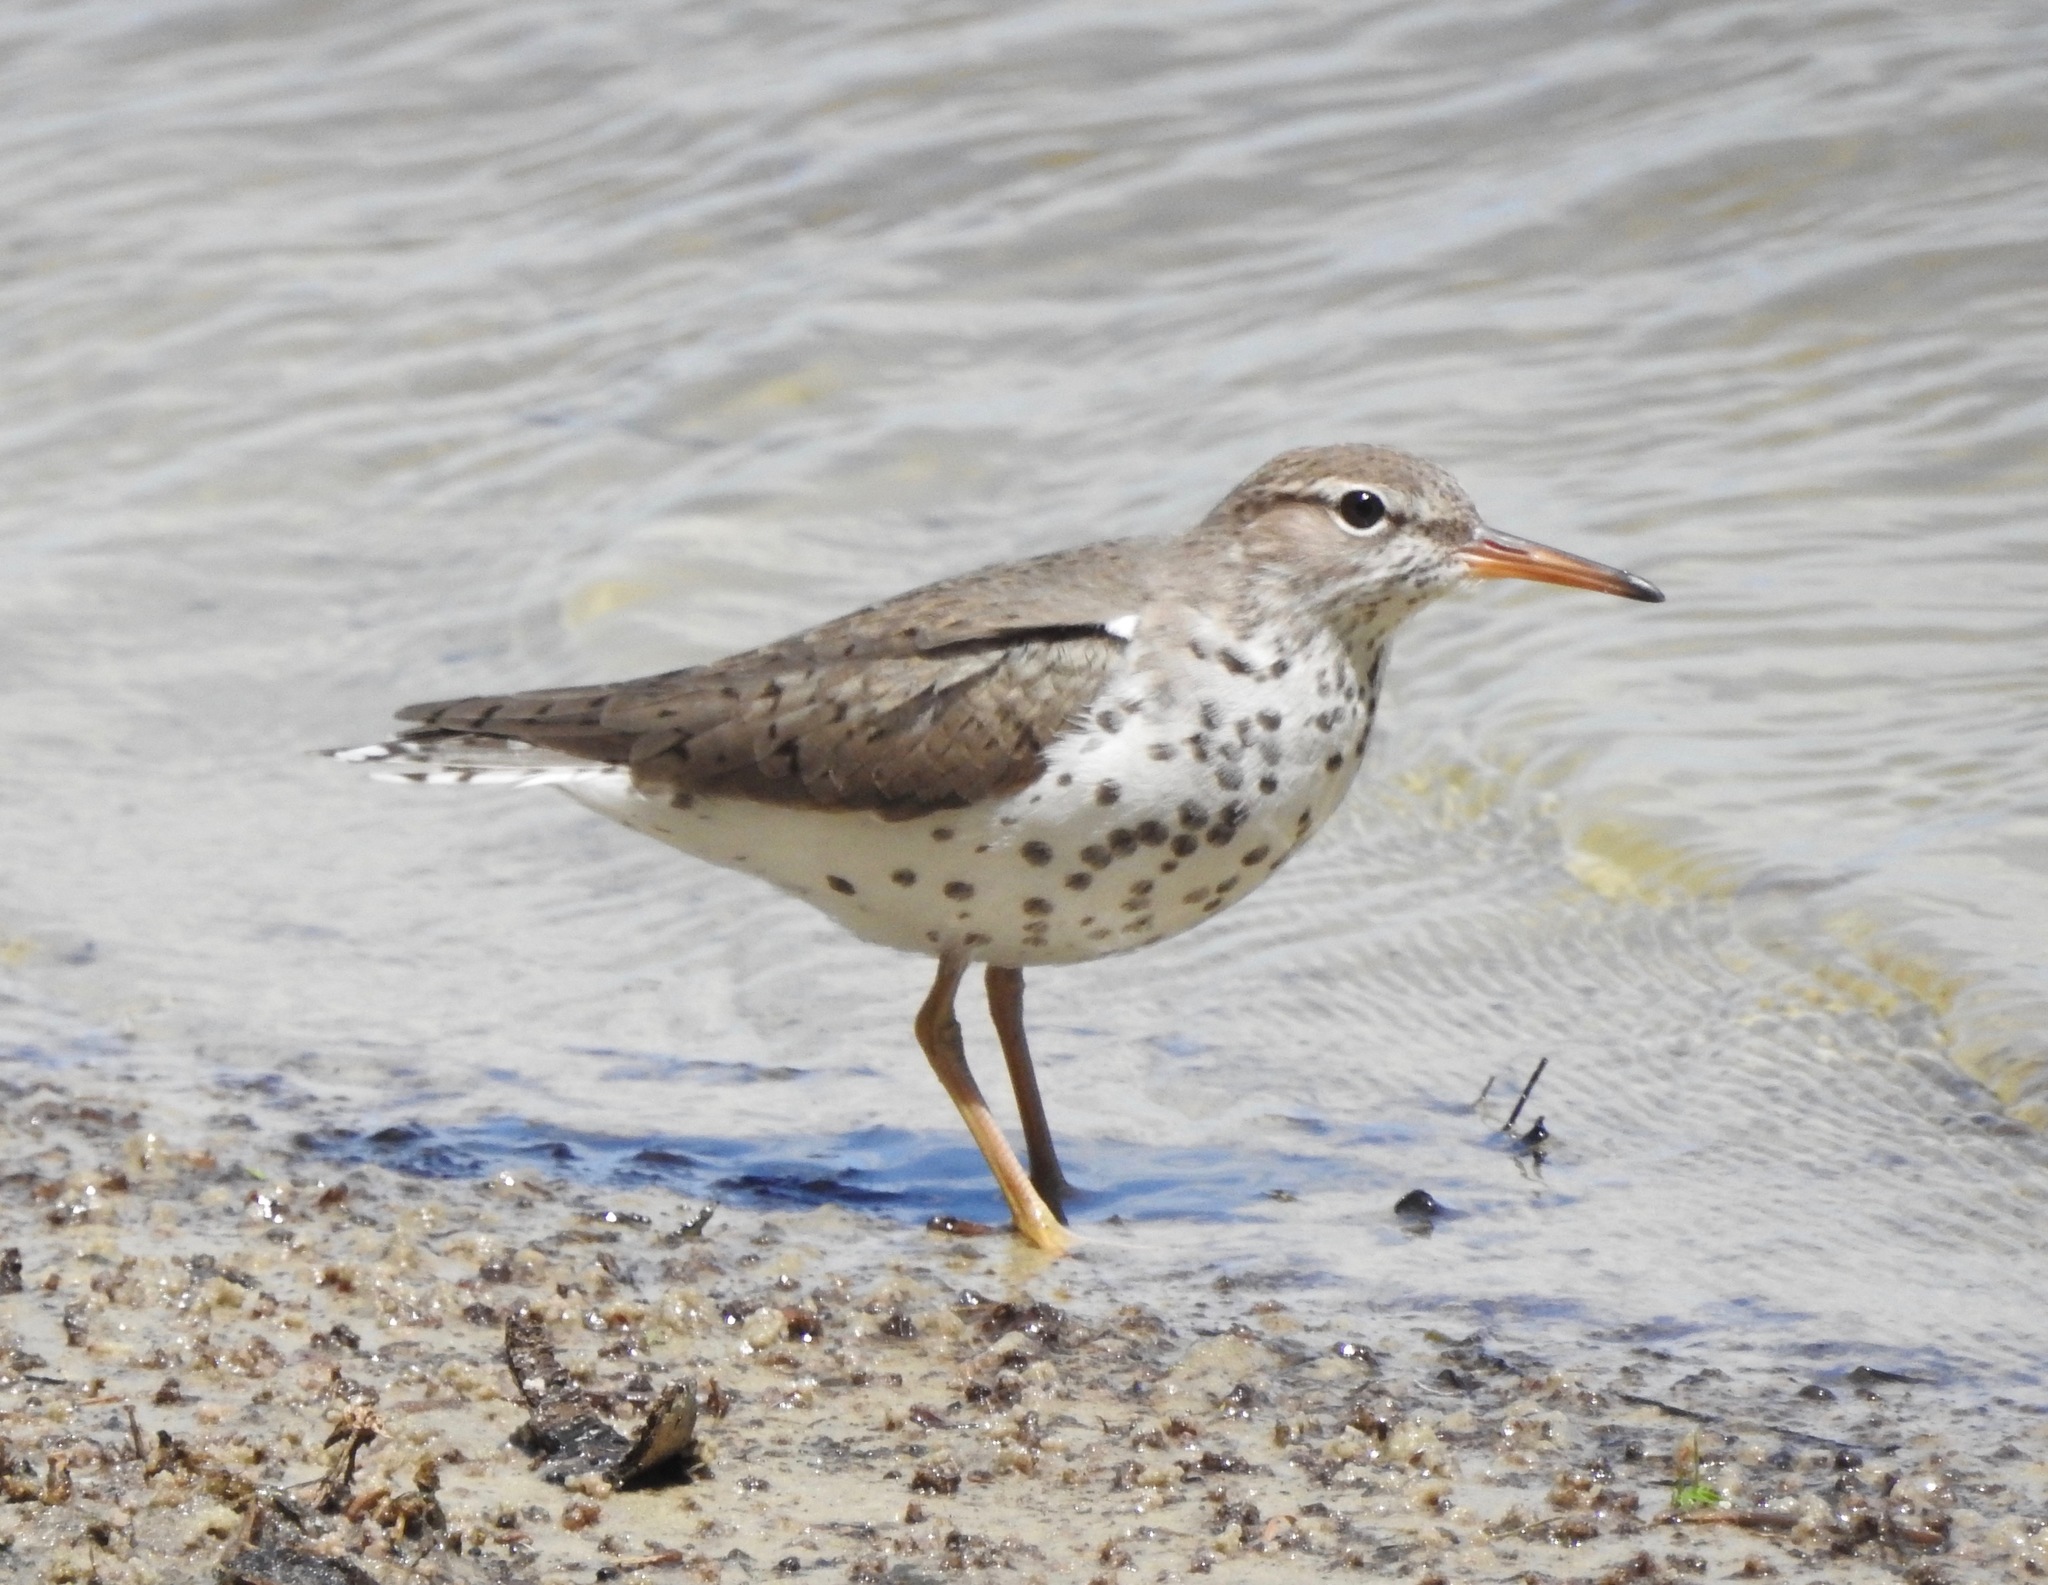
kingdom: Animalia
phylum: Chordata
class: Aves
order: Charadriiformes
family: Scolopacidae
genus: Actitis
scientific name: Actitis macularius
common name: Spotted sandpiper
